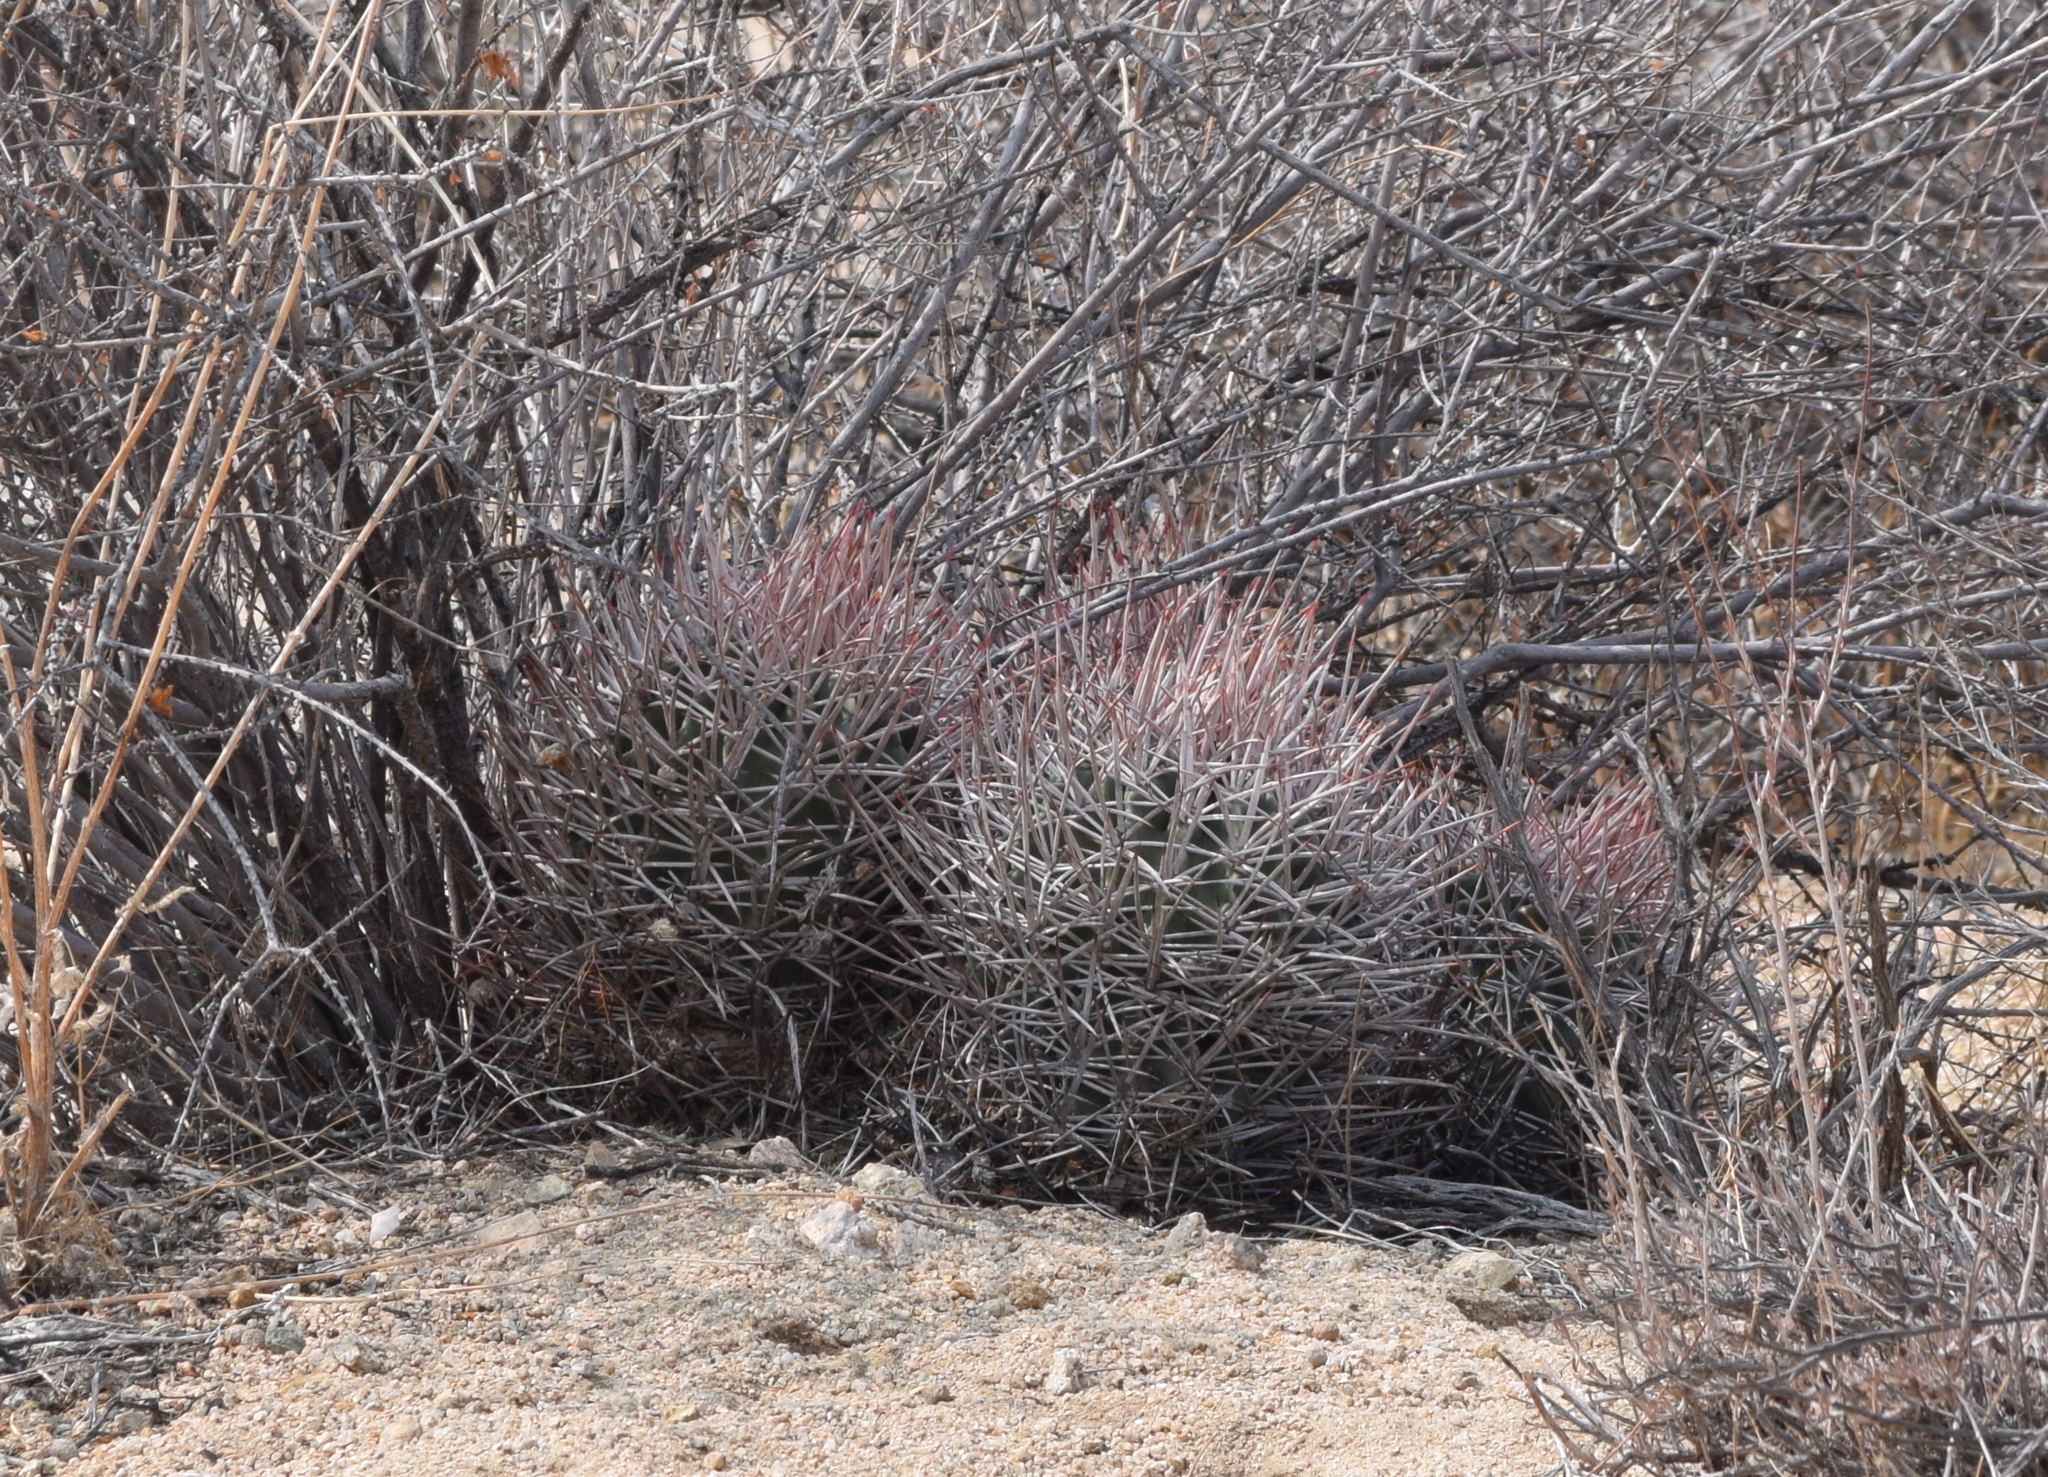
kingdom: Plantae
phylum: Tracheophyta
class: Magnoliopsida
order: Caryophyllales
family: Cactaceae
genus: Echinocactus
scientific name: Echinocactus polycephalus
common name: Cottontop cactus
